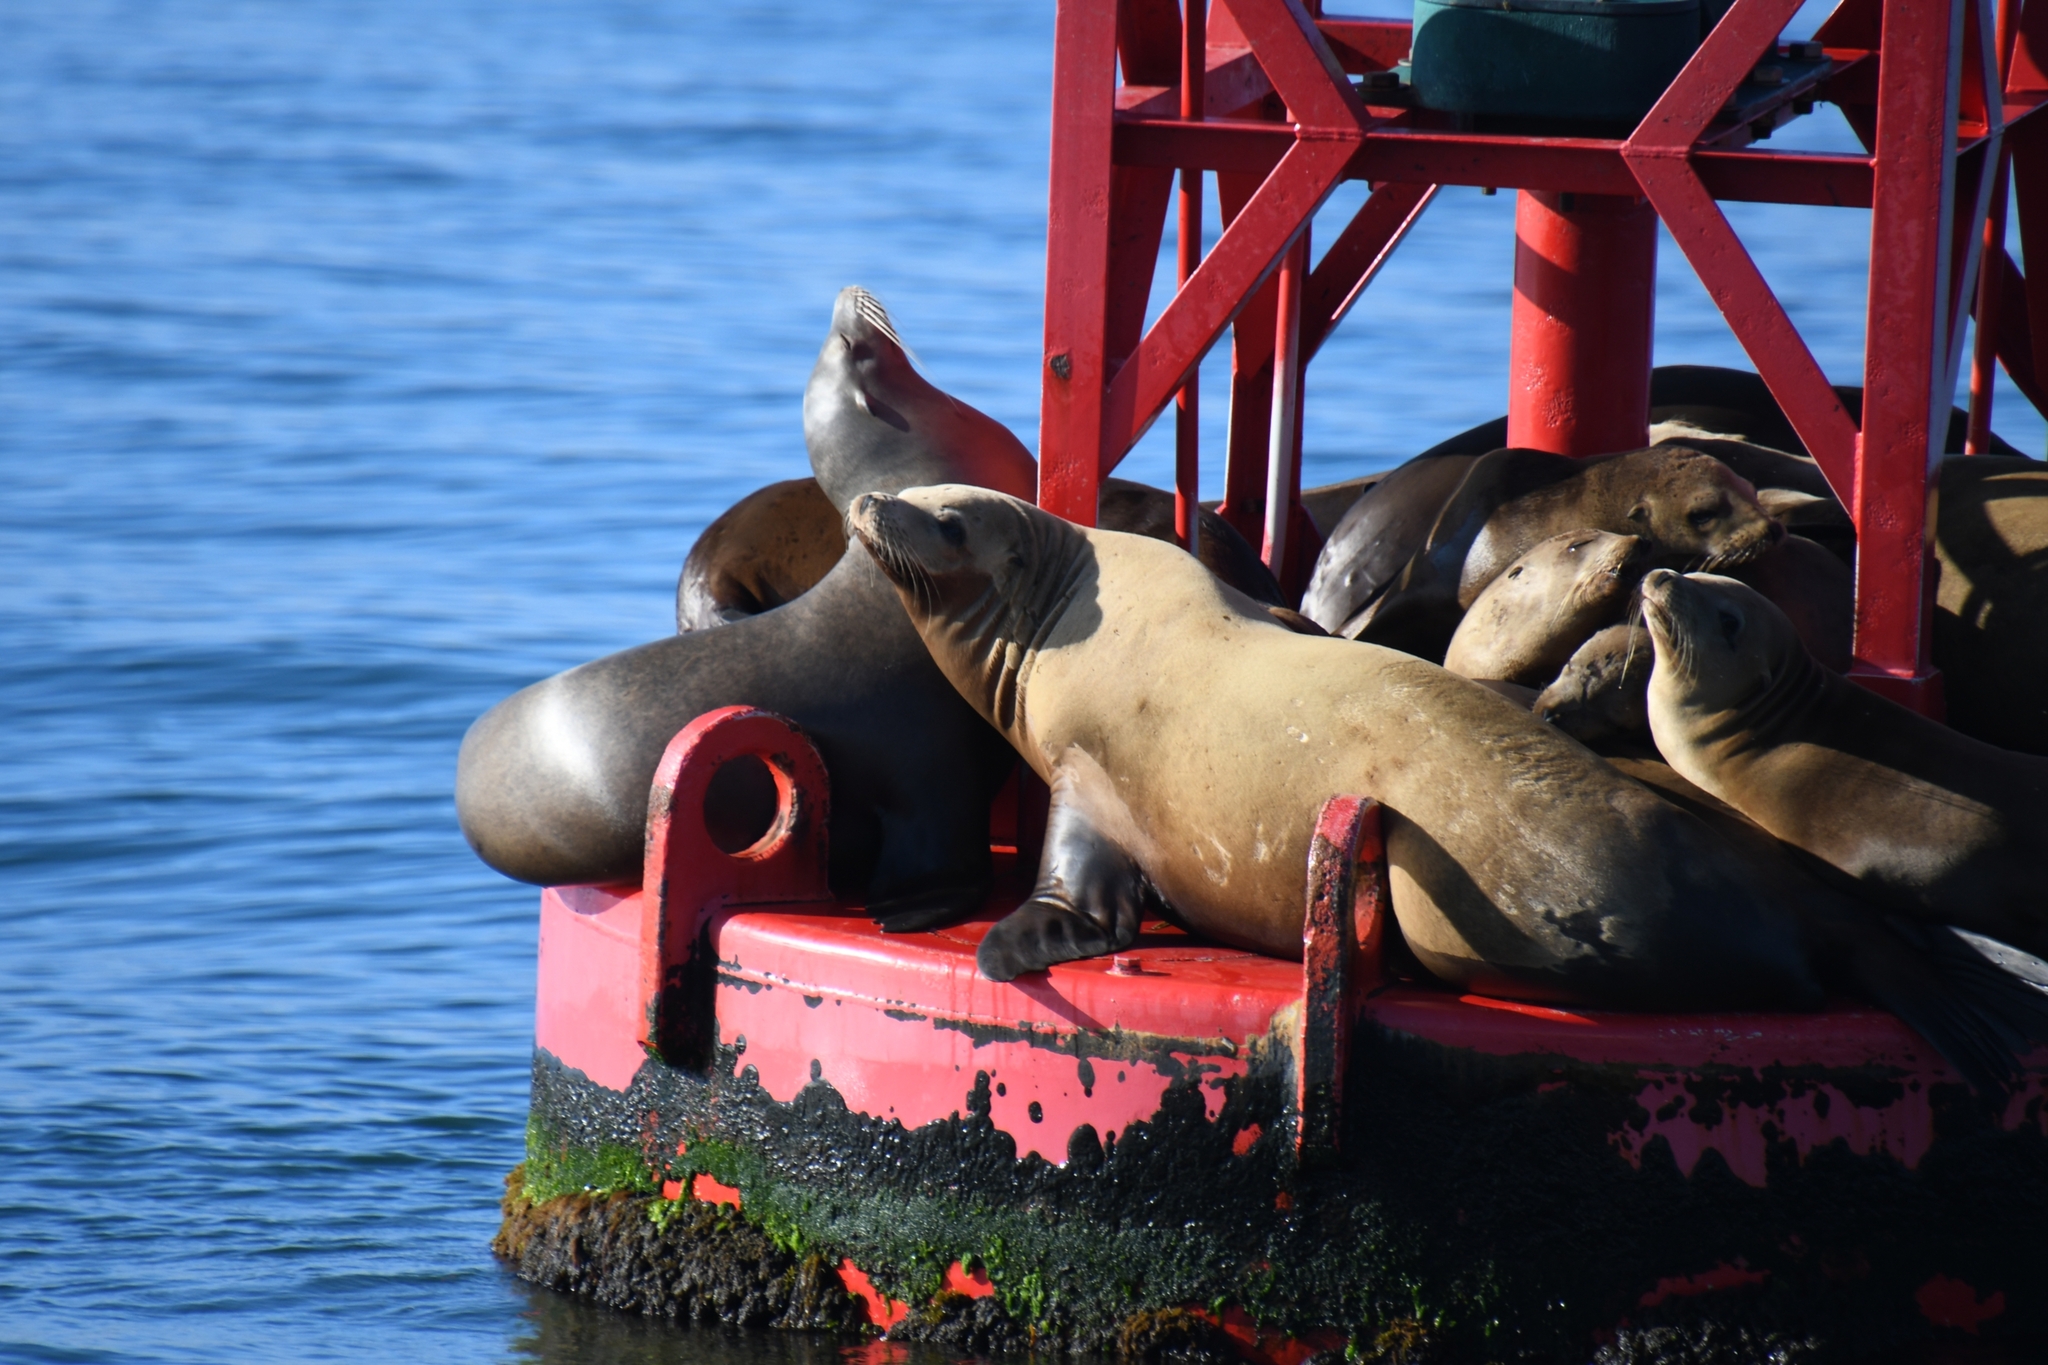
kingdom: Animalia
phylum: Chordata
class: Mammalia
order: Carnivora
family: Otariidae
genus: Zalophus
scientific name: Zalophus californianus
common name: California sea lion
